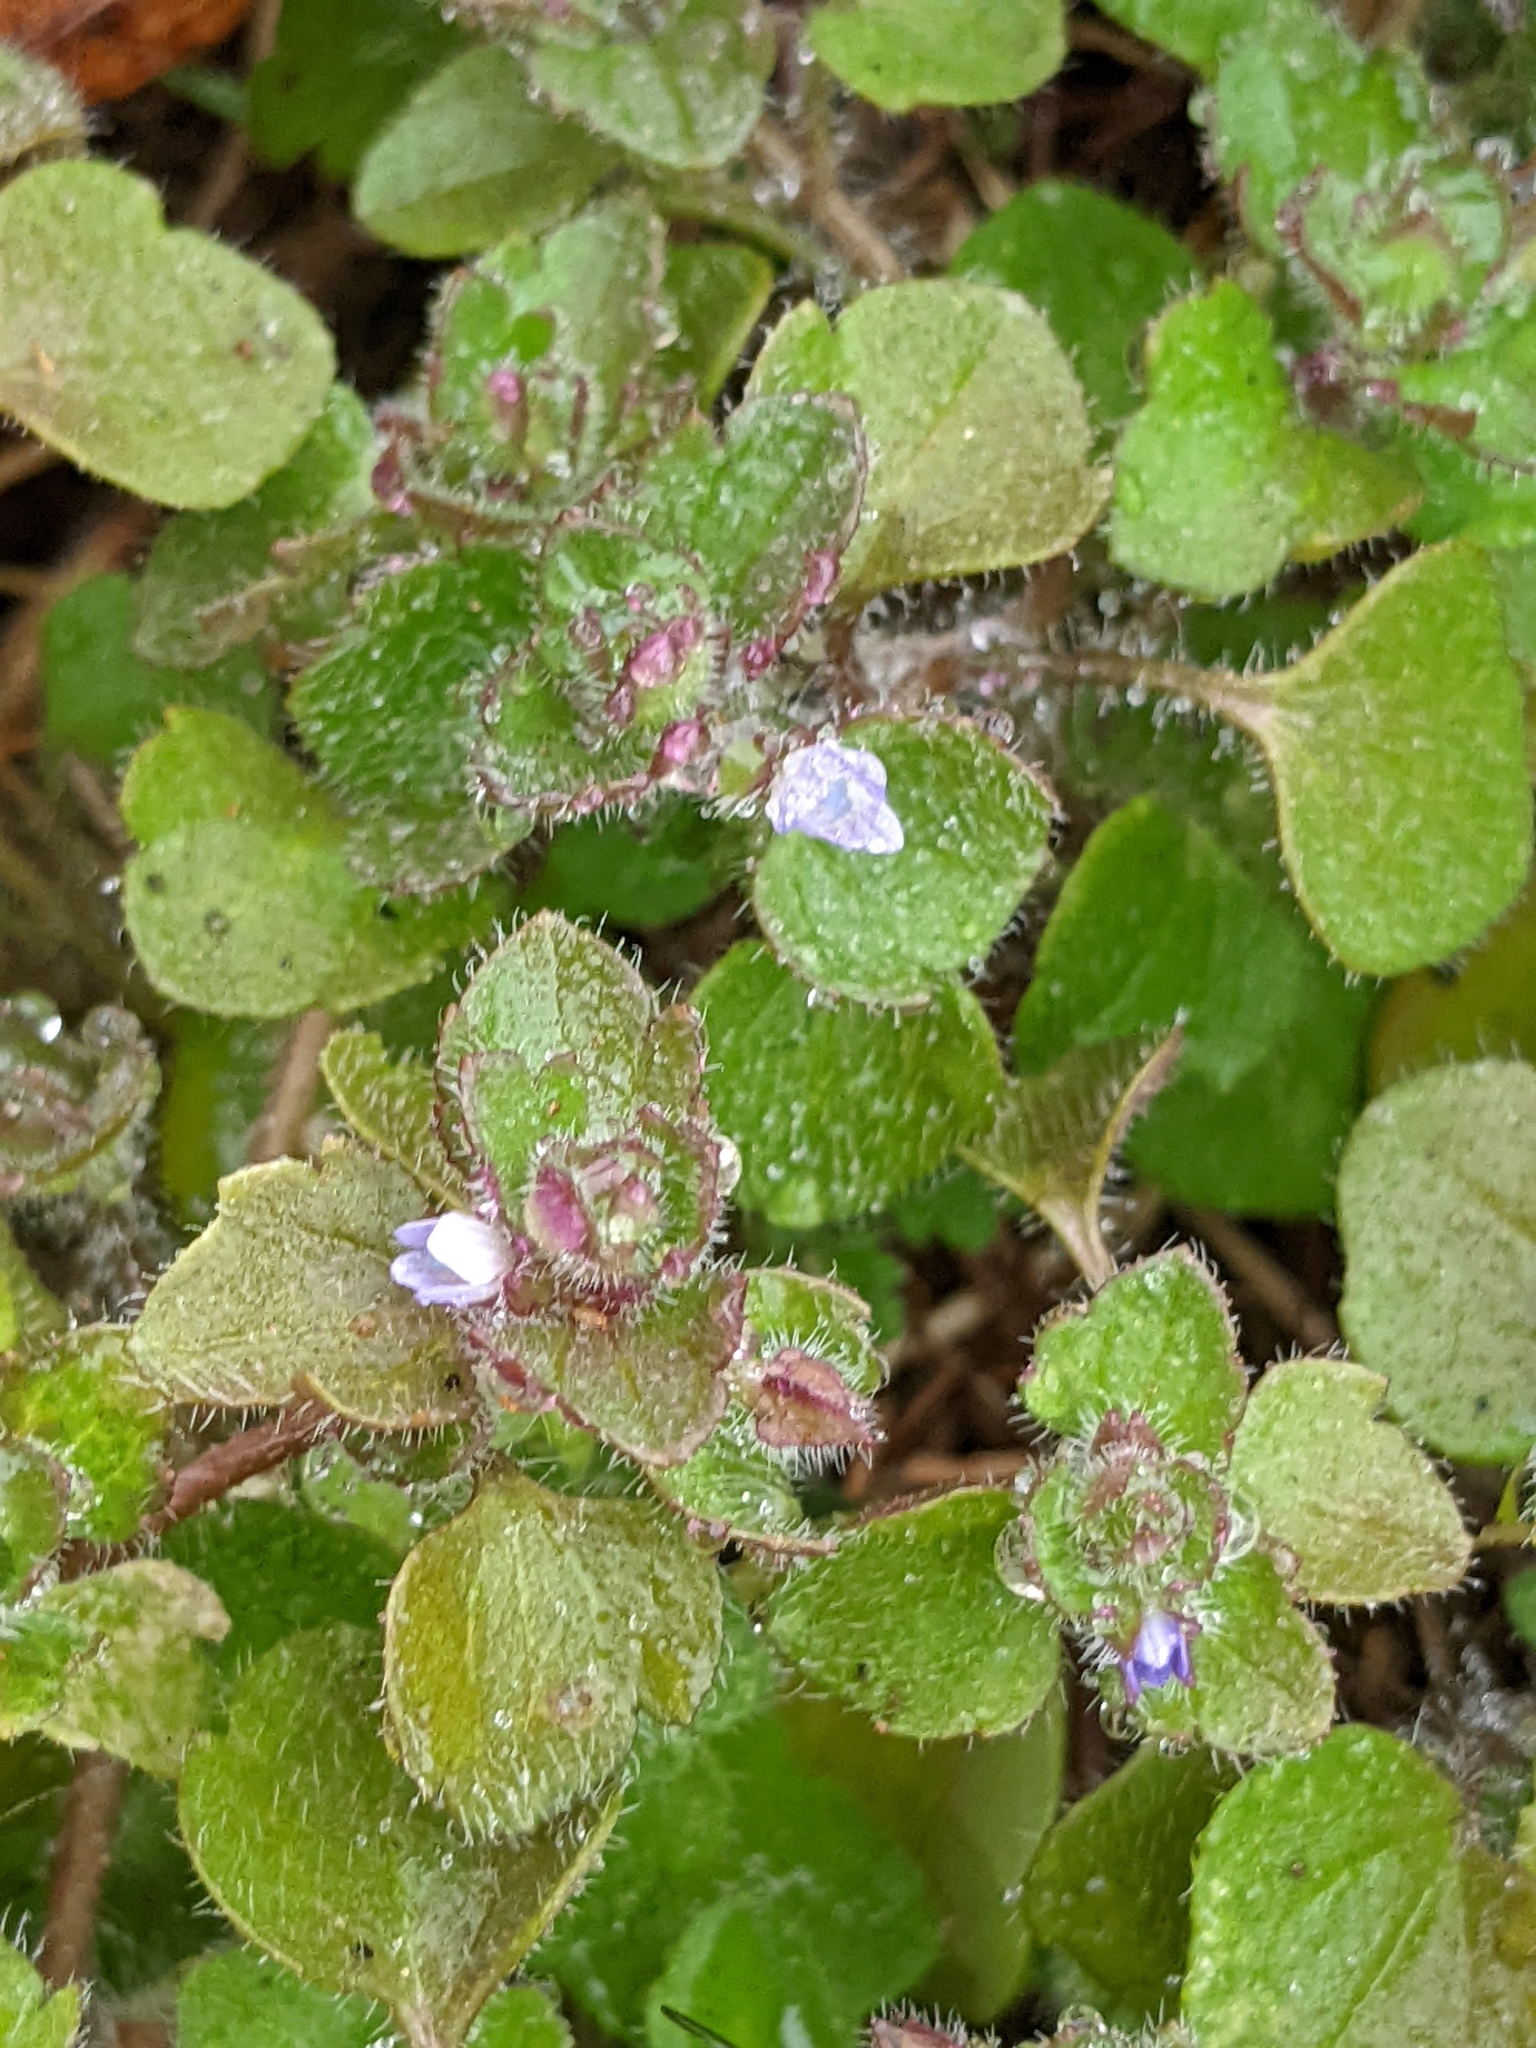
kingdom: Plantae
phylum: Tracheophyta
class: Magnoliopsida
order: Lamiales
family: Plantaginaceae
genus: Veronica
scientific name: Veronica sublobata
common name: False ivy-leaved speedwell
